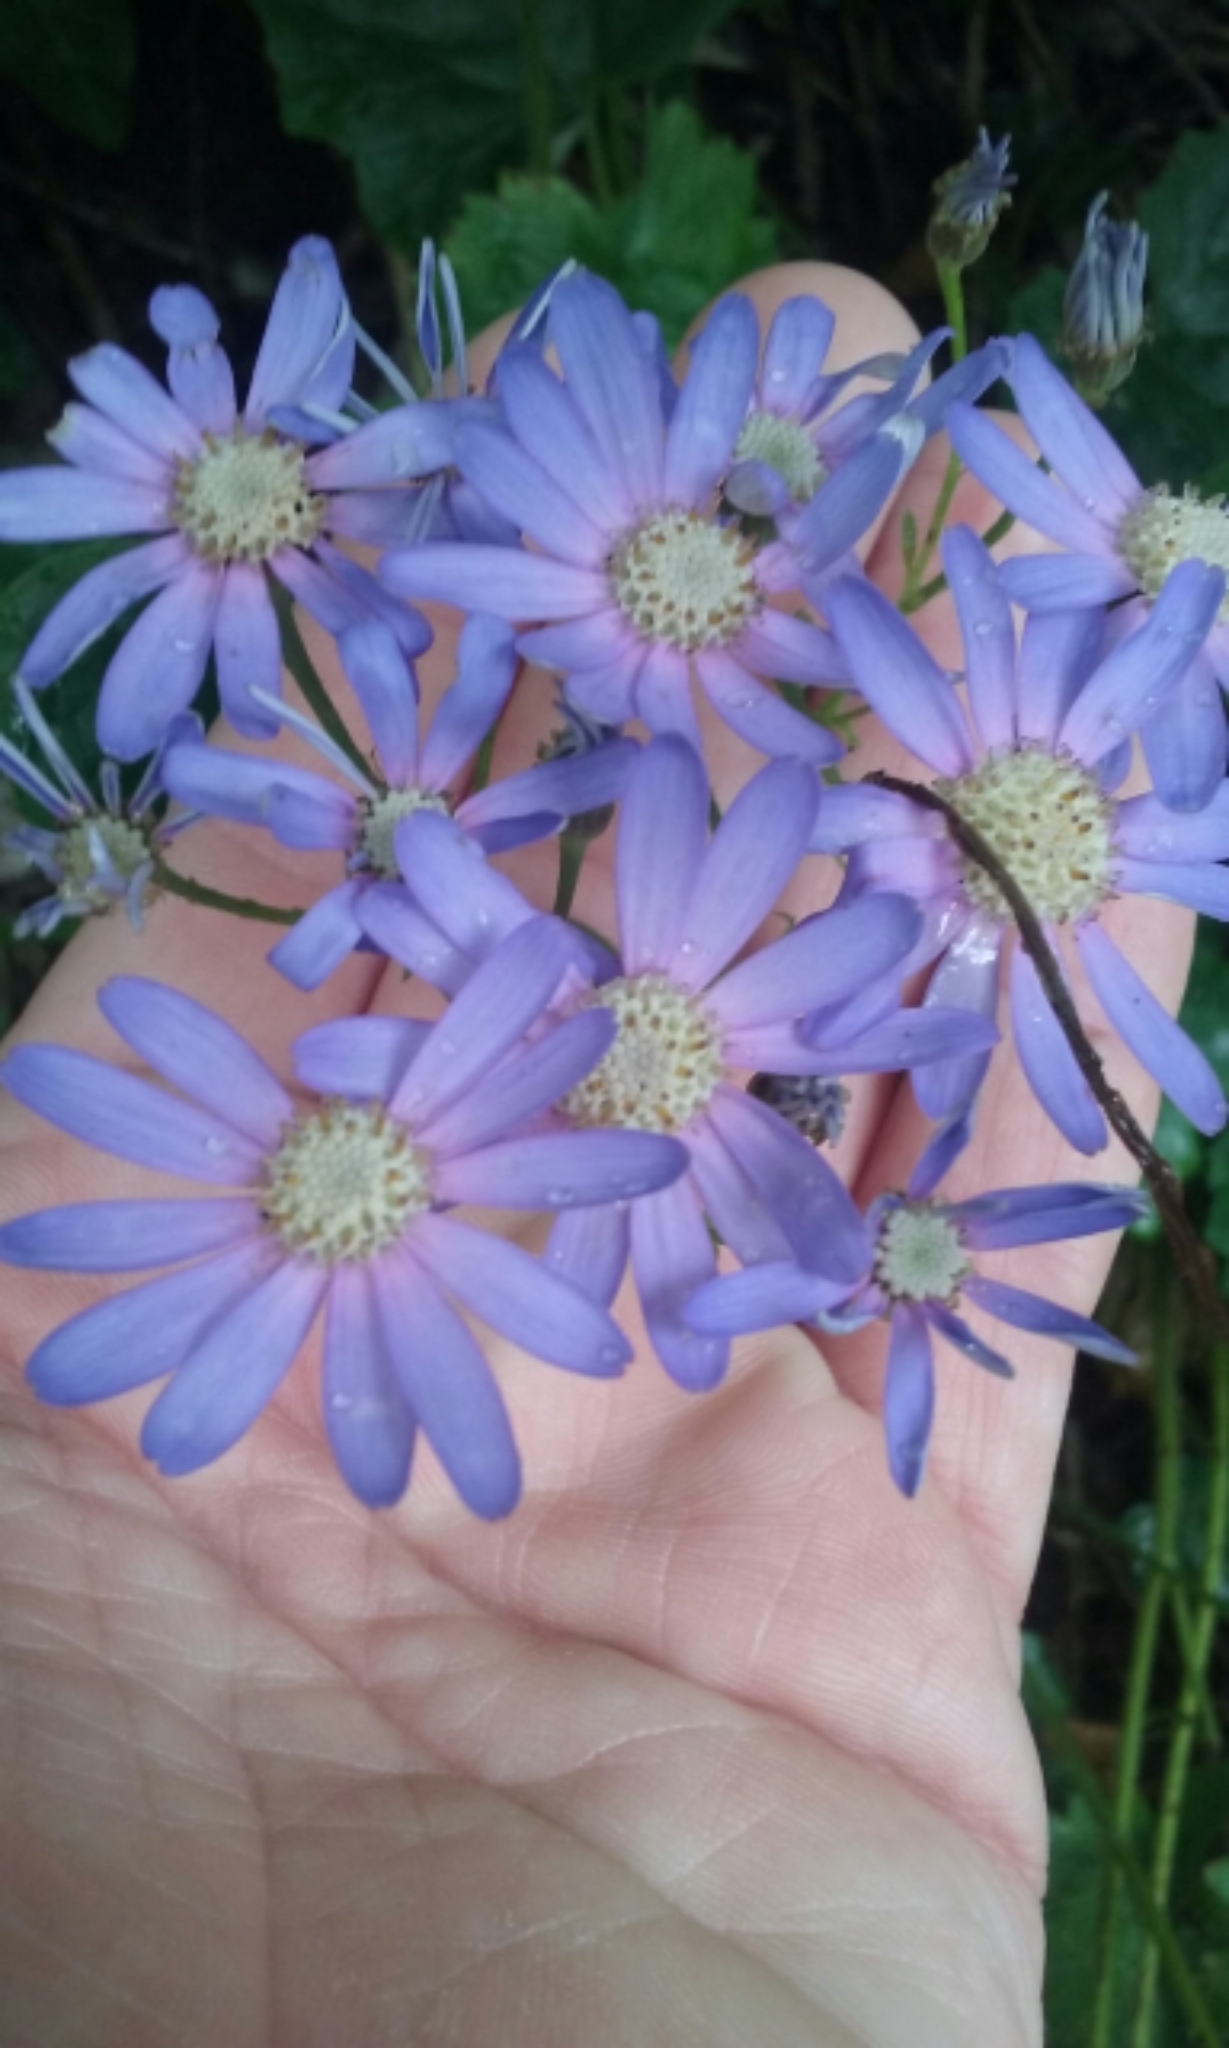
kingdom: Plantae
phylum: Tracheophyta
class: Magnoliopsida
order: Asterales
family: Asteraceae
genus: Pericallis
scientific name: Pericallis hybrida
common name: Cineraria
